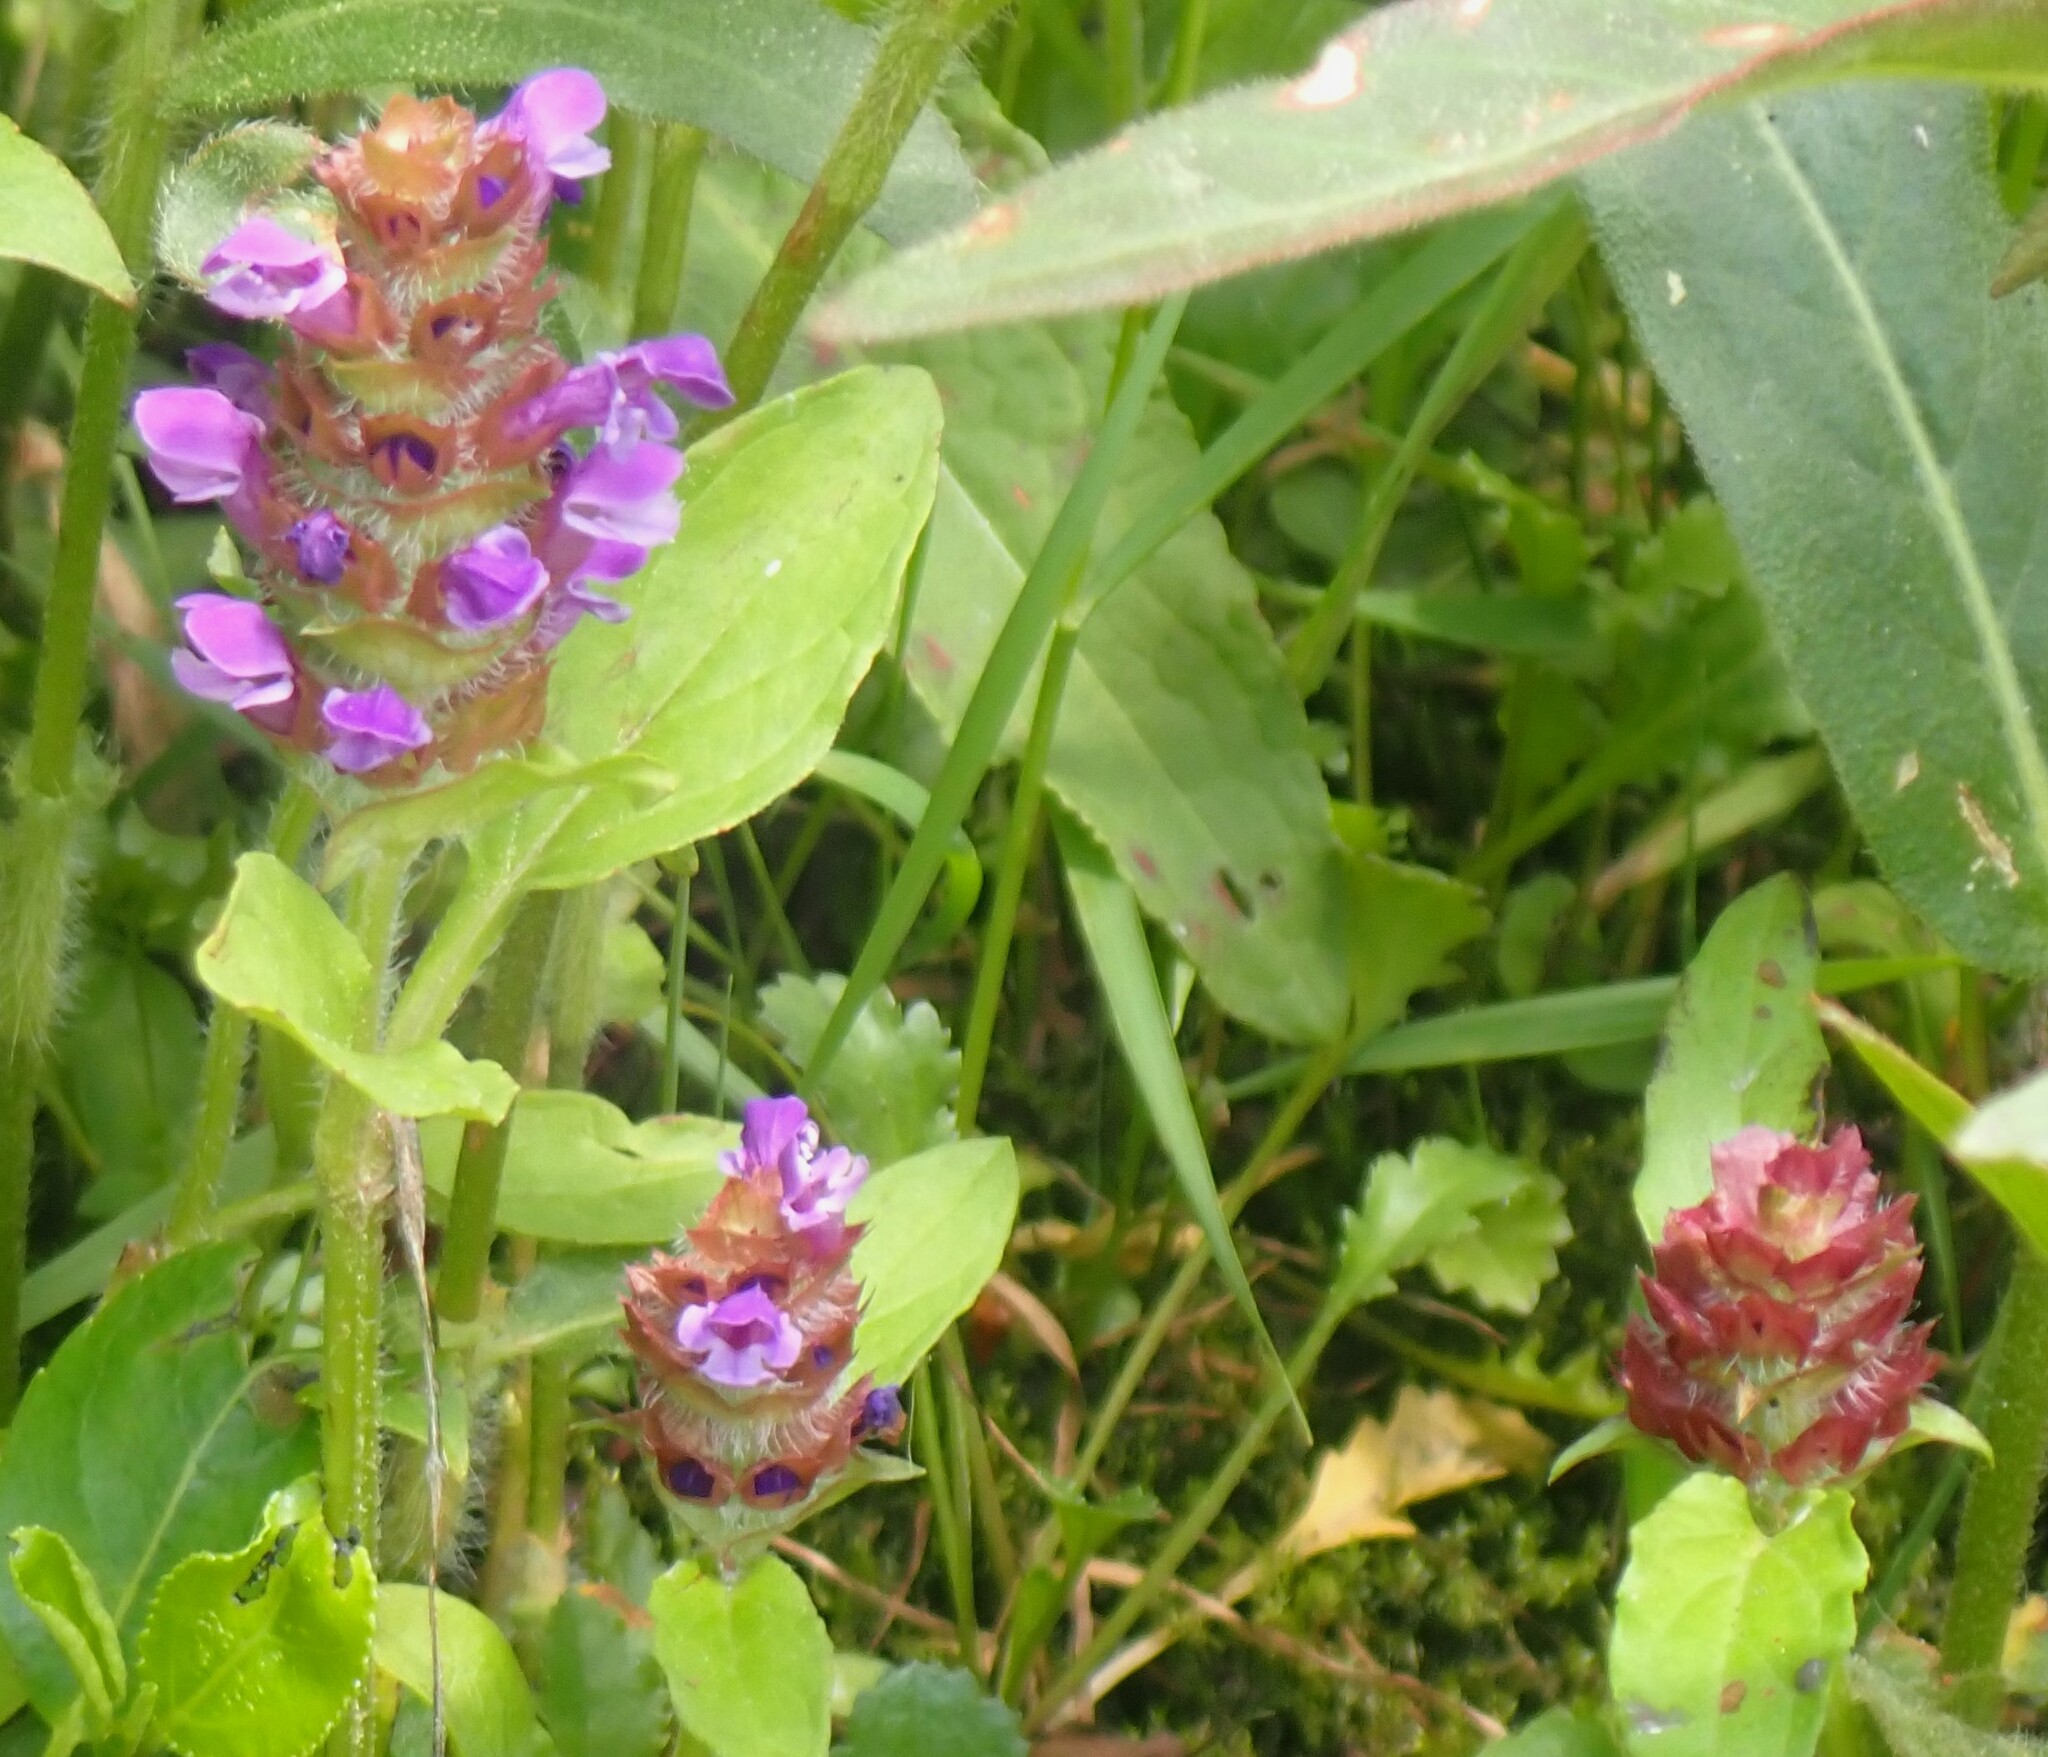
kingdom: Plantae
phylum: Tracheophyta
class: Magnoliopsida
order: Lamiales
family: Lamiaceae
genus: Prunella
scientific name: Prunella vulgaris
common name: Heal-all
